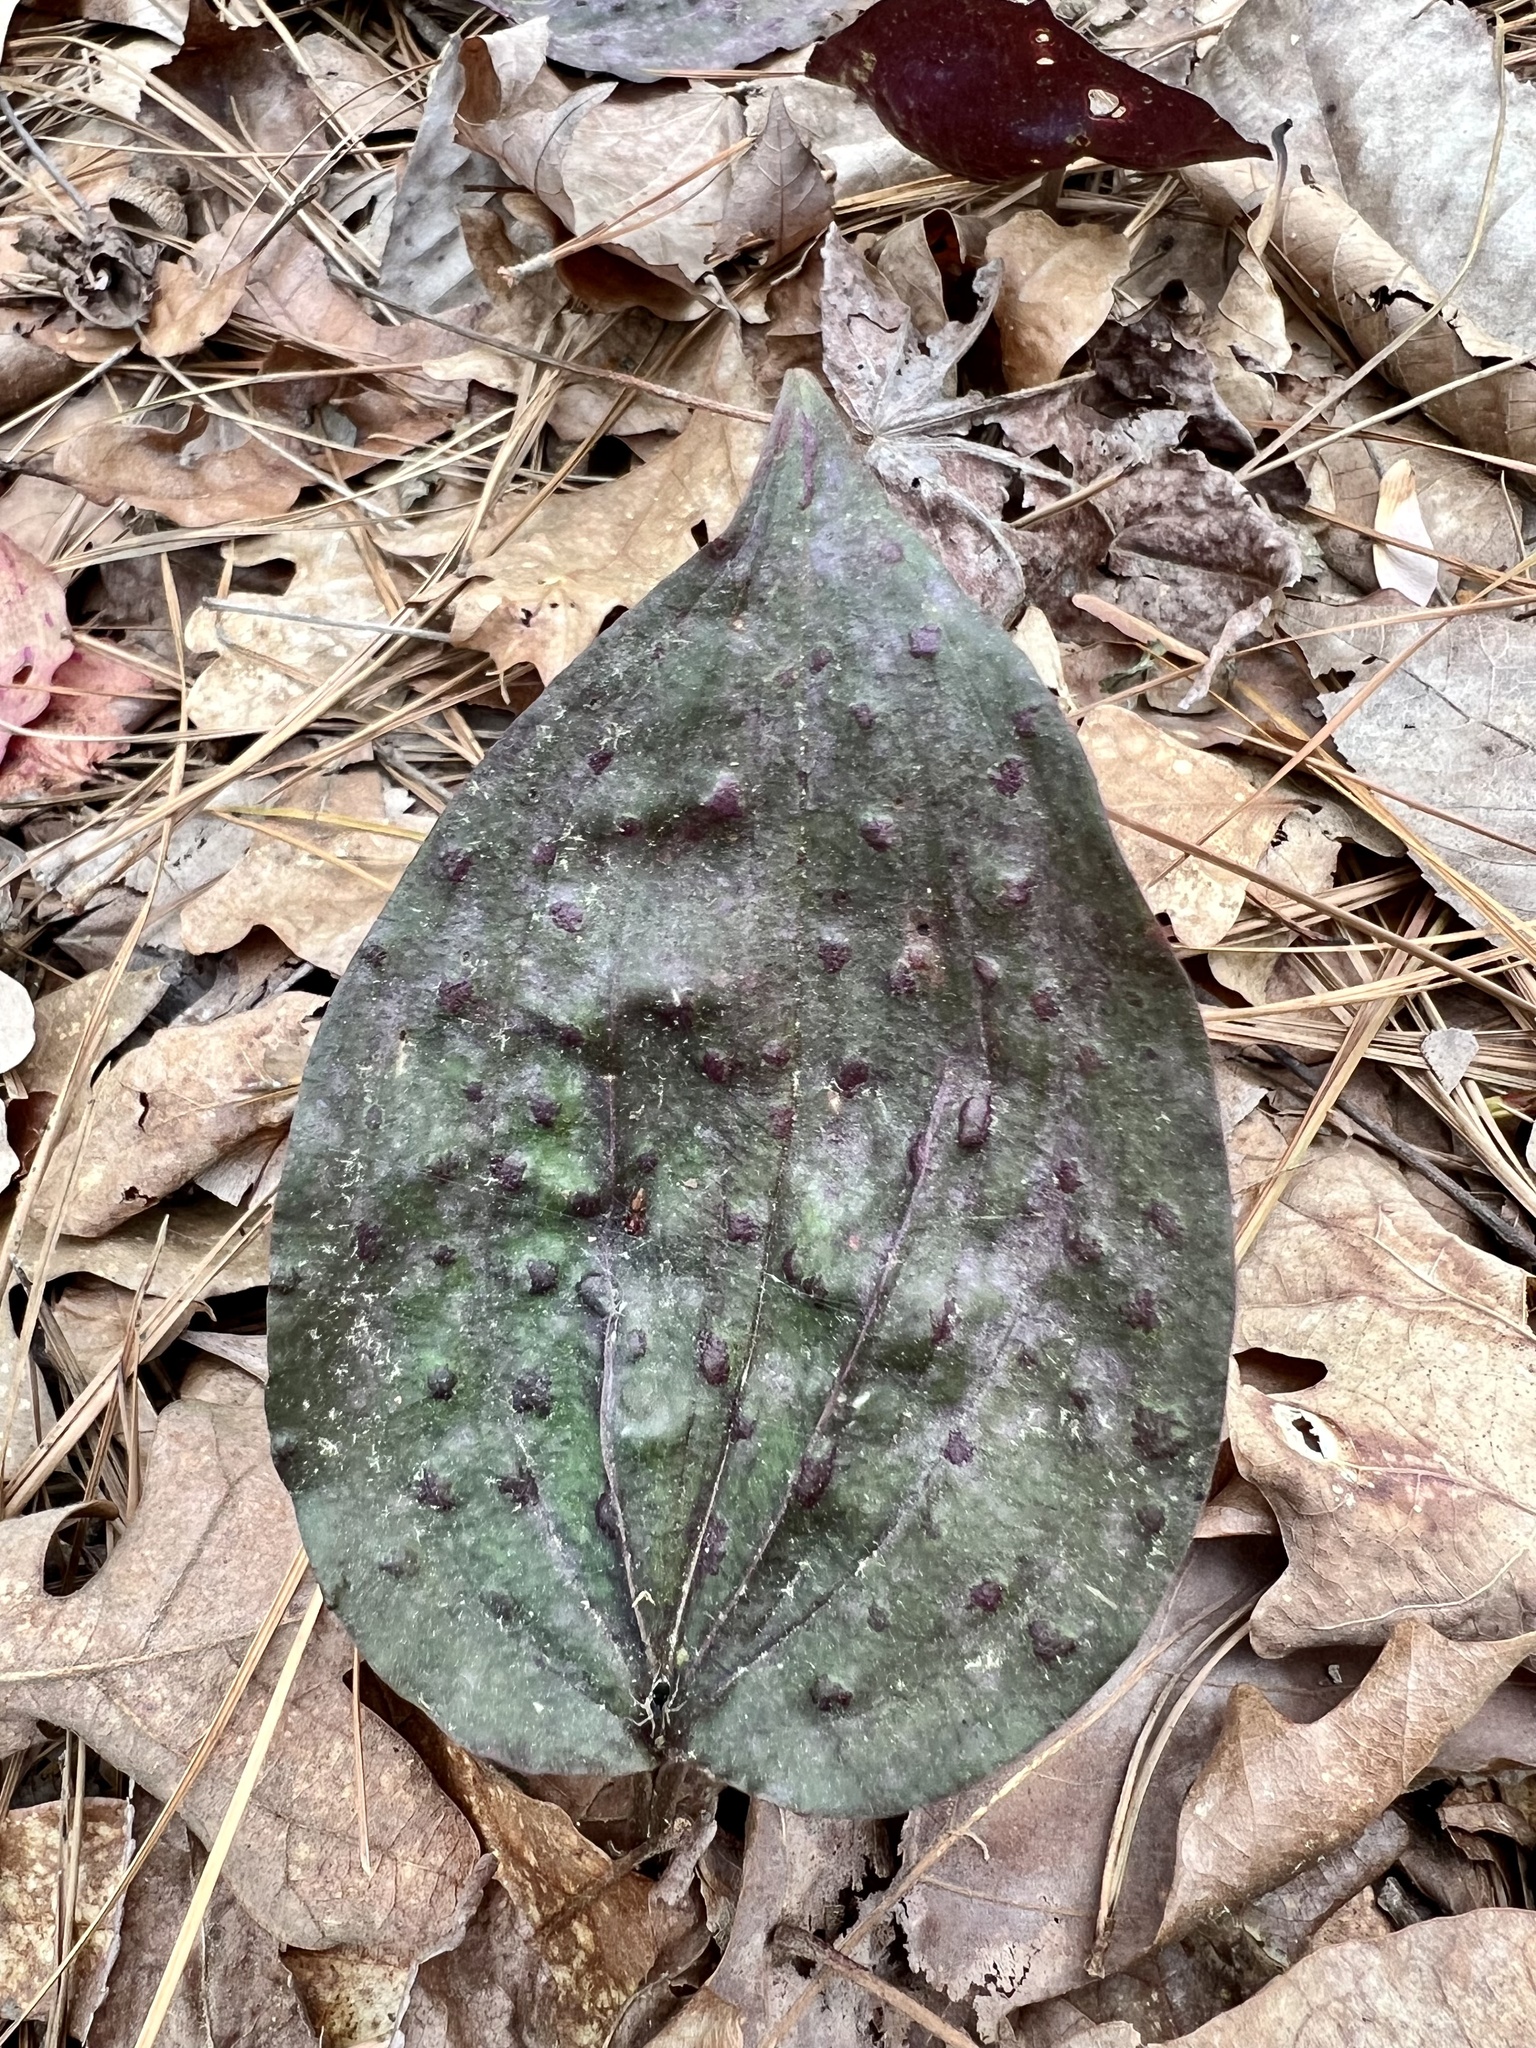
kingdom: Plantae
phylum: Tracheophyta
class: Liliopsida
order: Asparagales
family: Orchidaceae
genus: Tipularia
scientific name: Tipularia discolor
